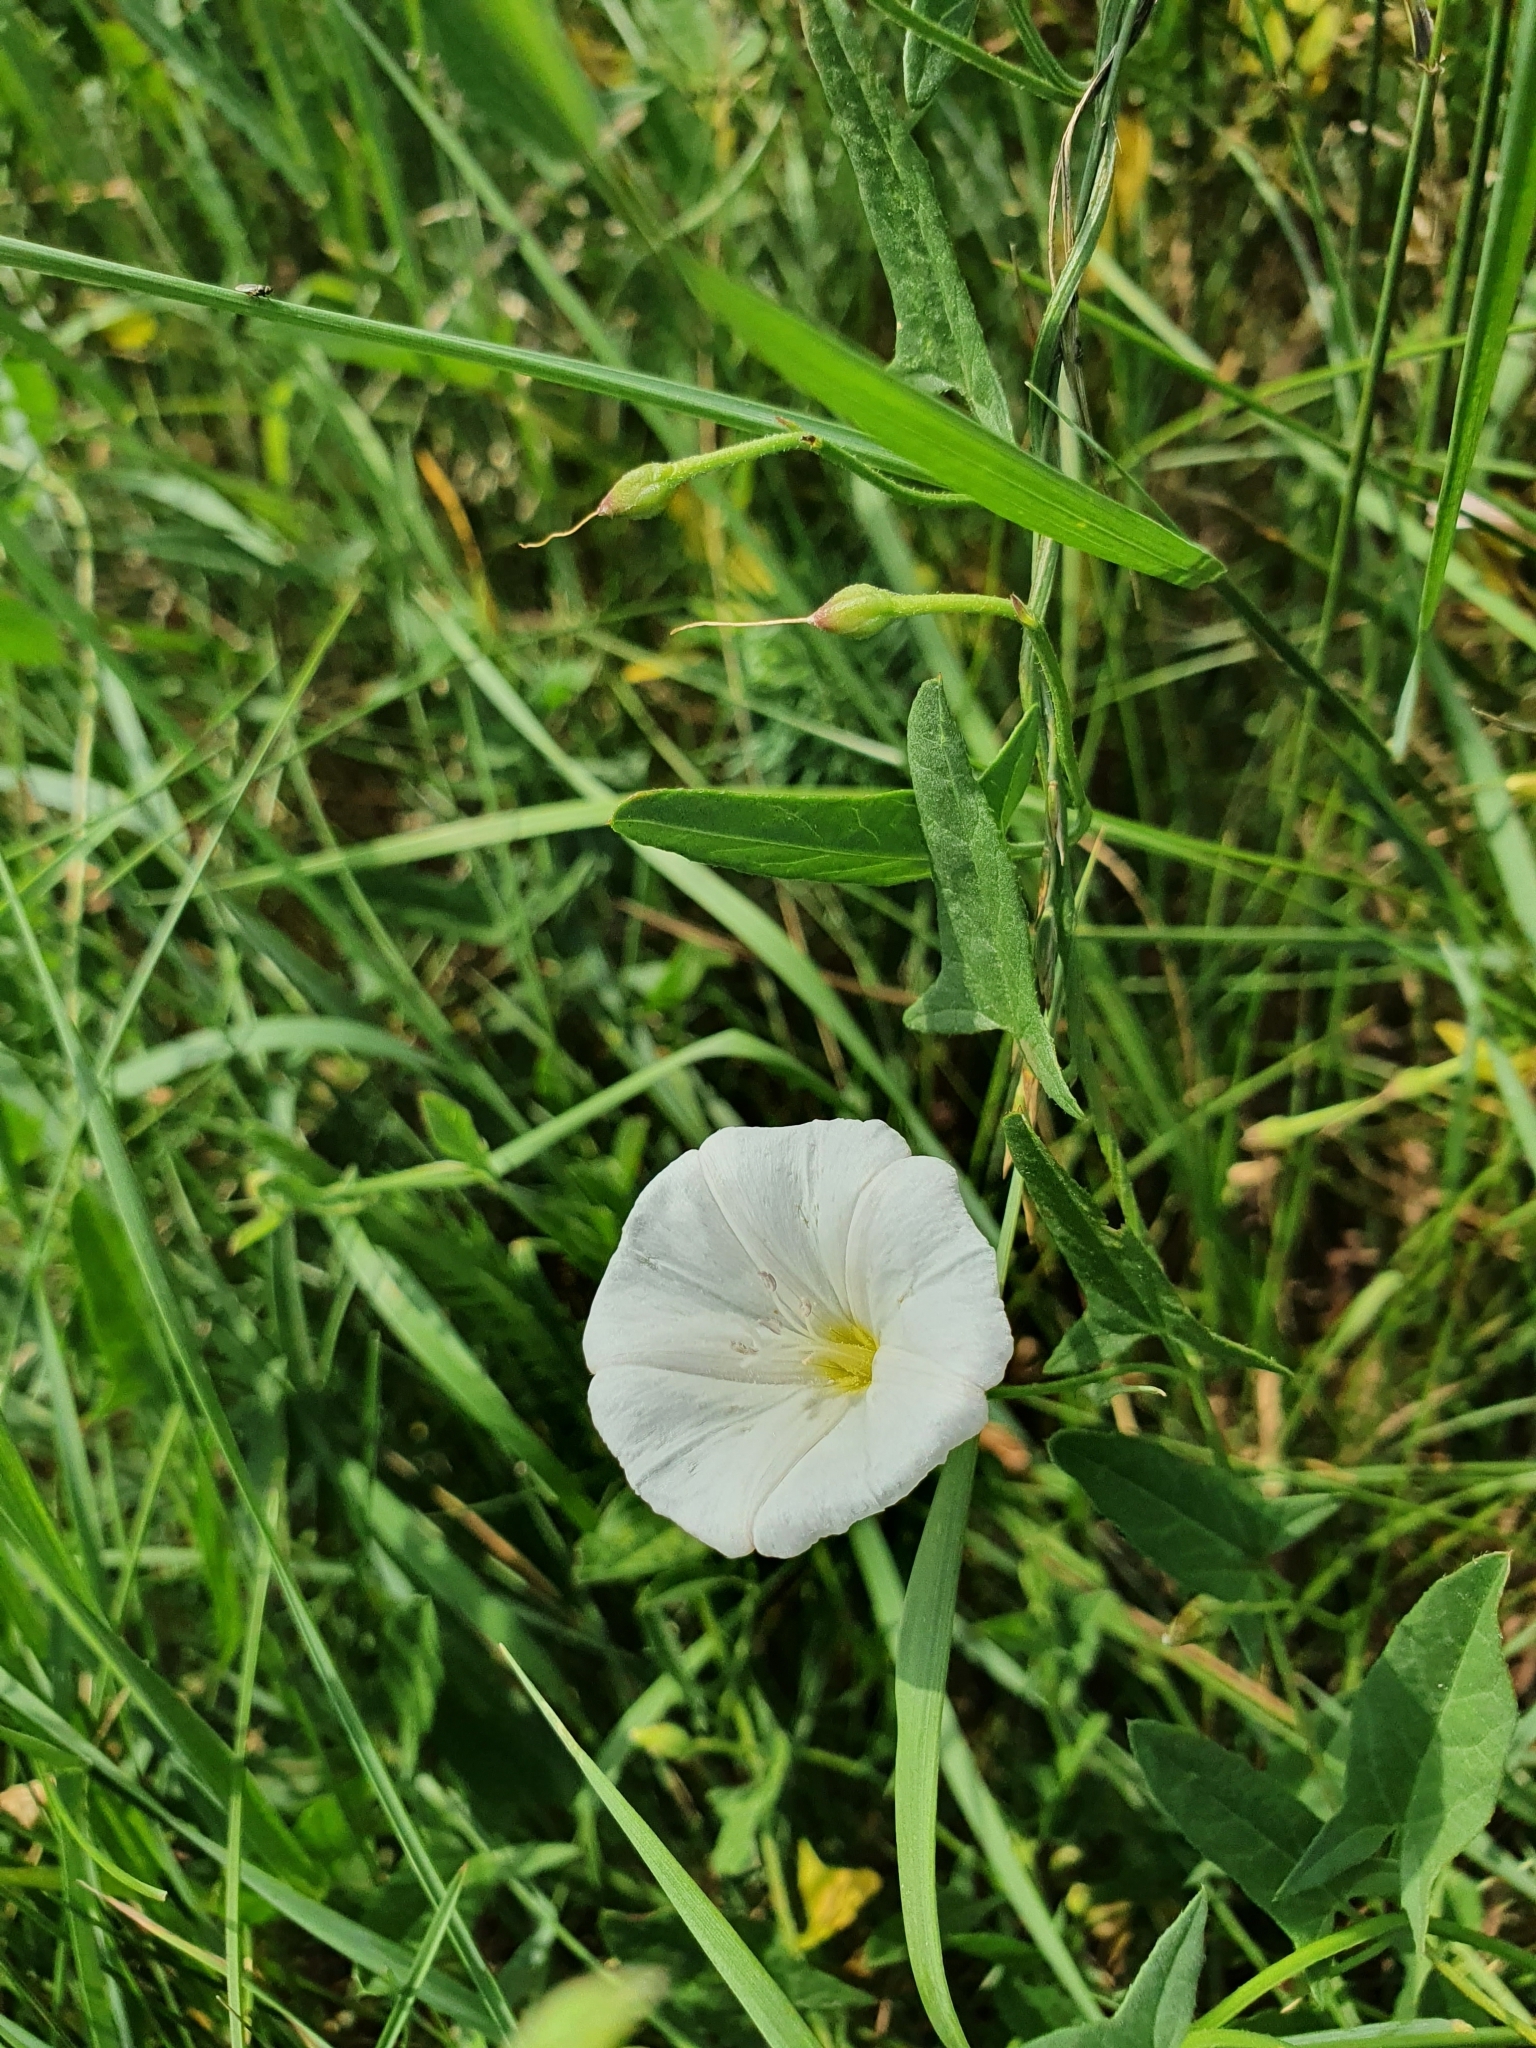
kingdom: Plantae
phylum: Tracheophyta
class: Magnoliopsida
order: Solanales
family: Convolvulaceae
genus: Convolvulus
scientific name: Convolvulus arvensis
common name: Field bindweed
